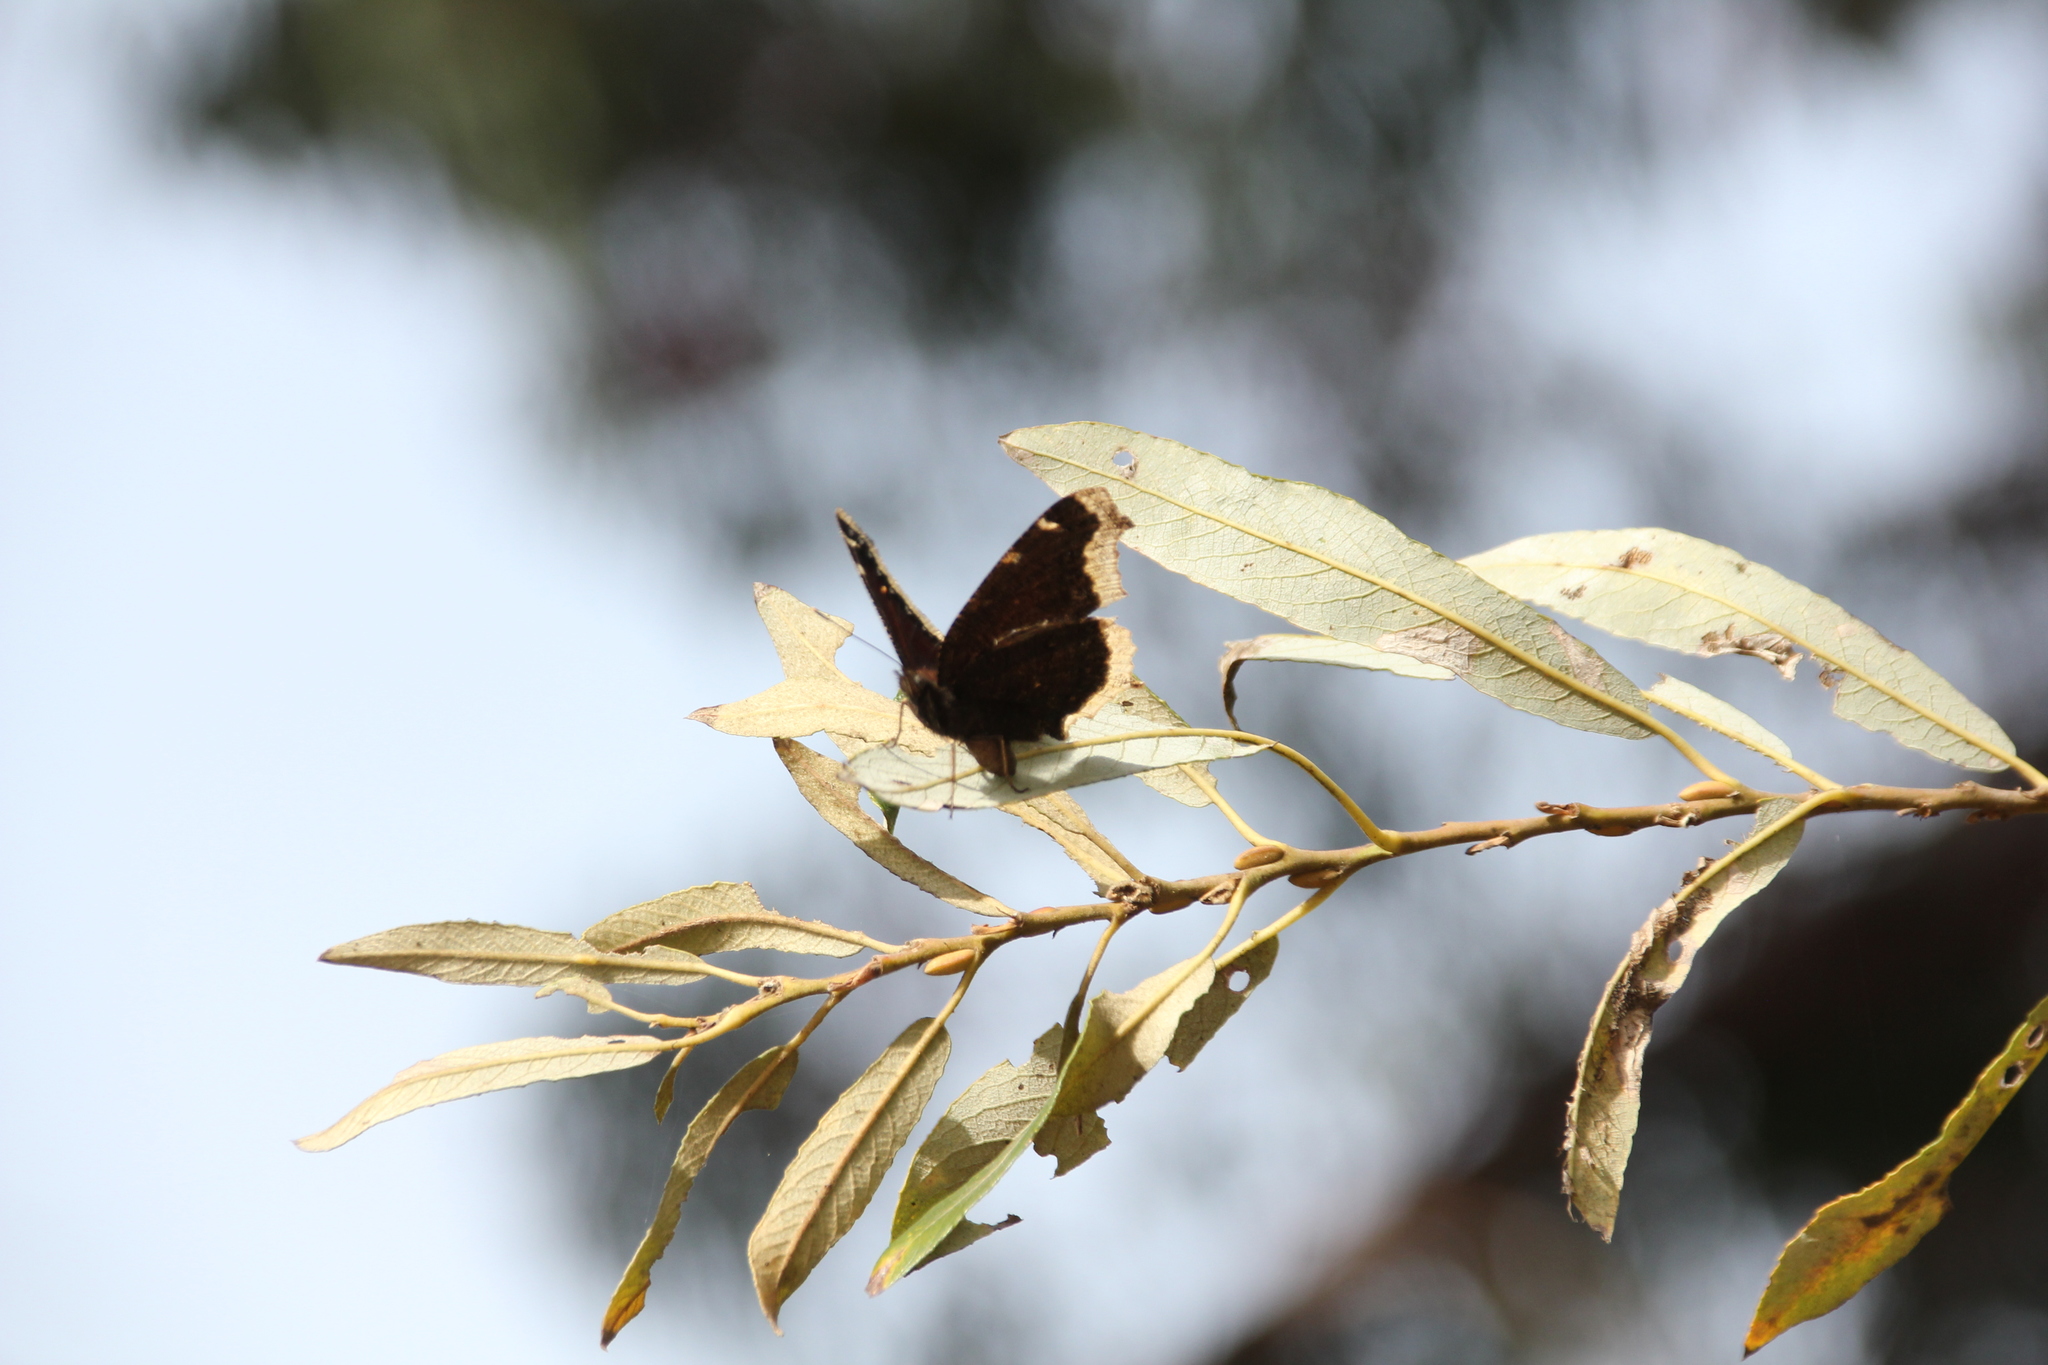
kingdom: Animalia
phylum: Arthropoda
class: Insecta
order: Lepidoptera
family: Nymphalidae
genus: Nymphalis
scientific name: Nymphalis antiopa
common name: Camberwell beauty
